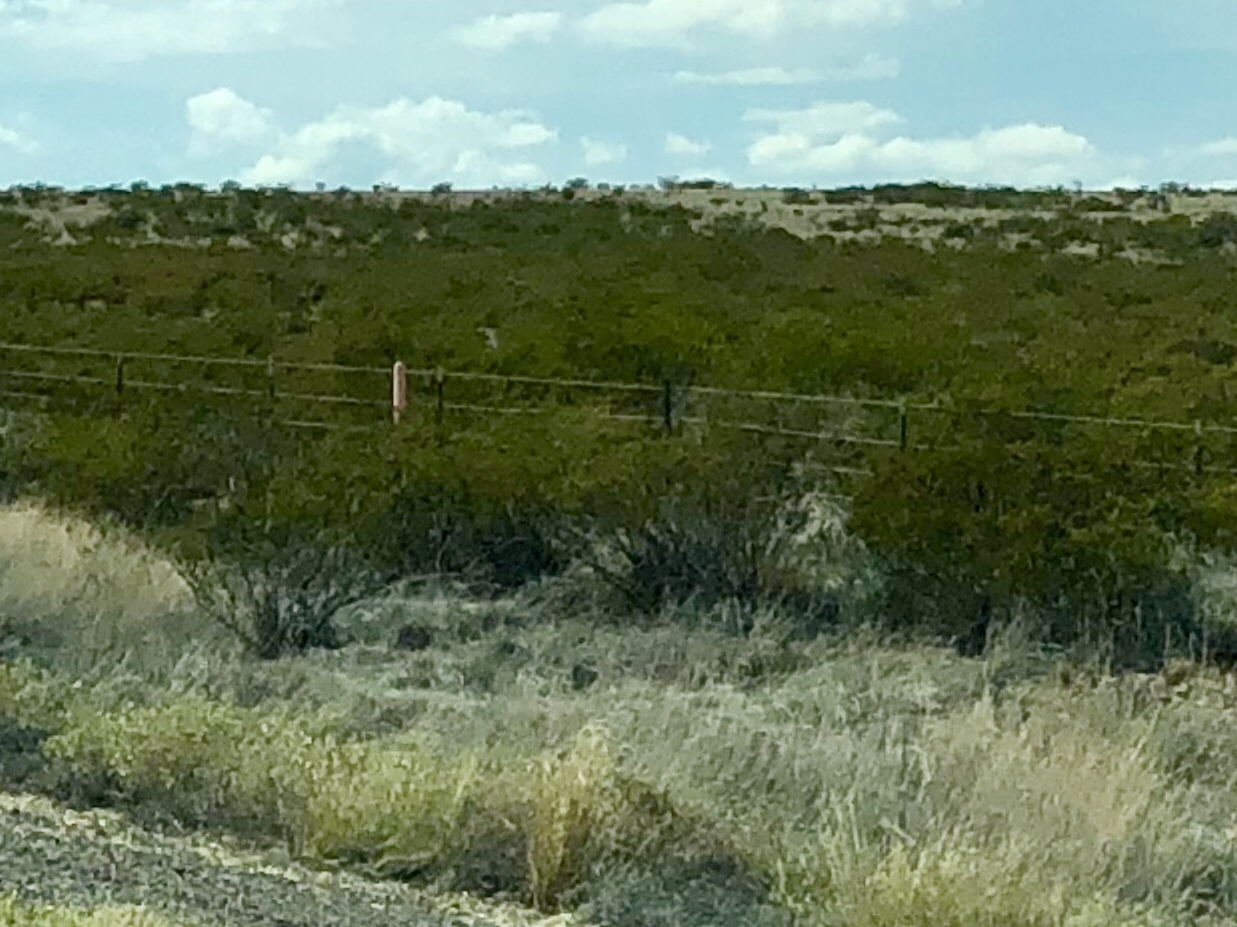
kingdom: Plantae
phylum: Tracheophyta
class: Magnoliopsida
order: Zygophyllales
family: Zygophyllaceae
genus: Larrea
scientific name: Larrea tridentata
